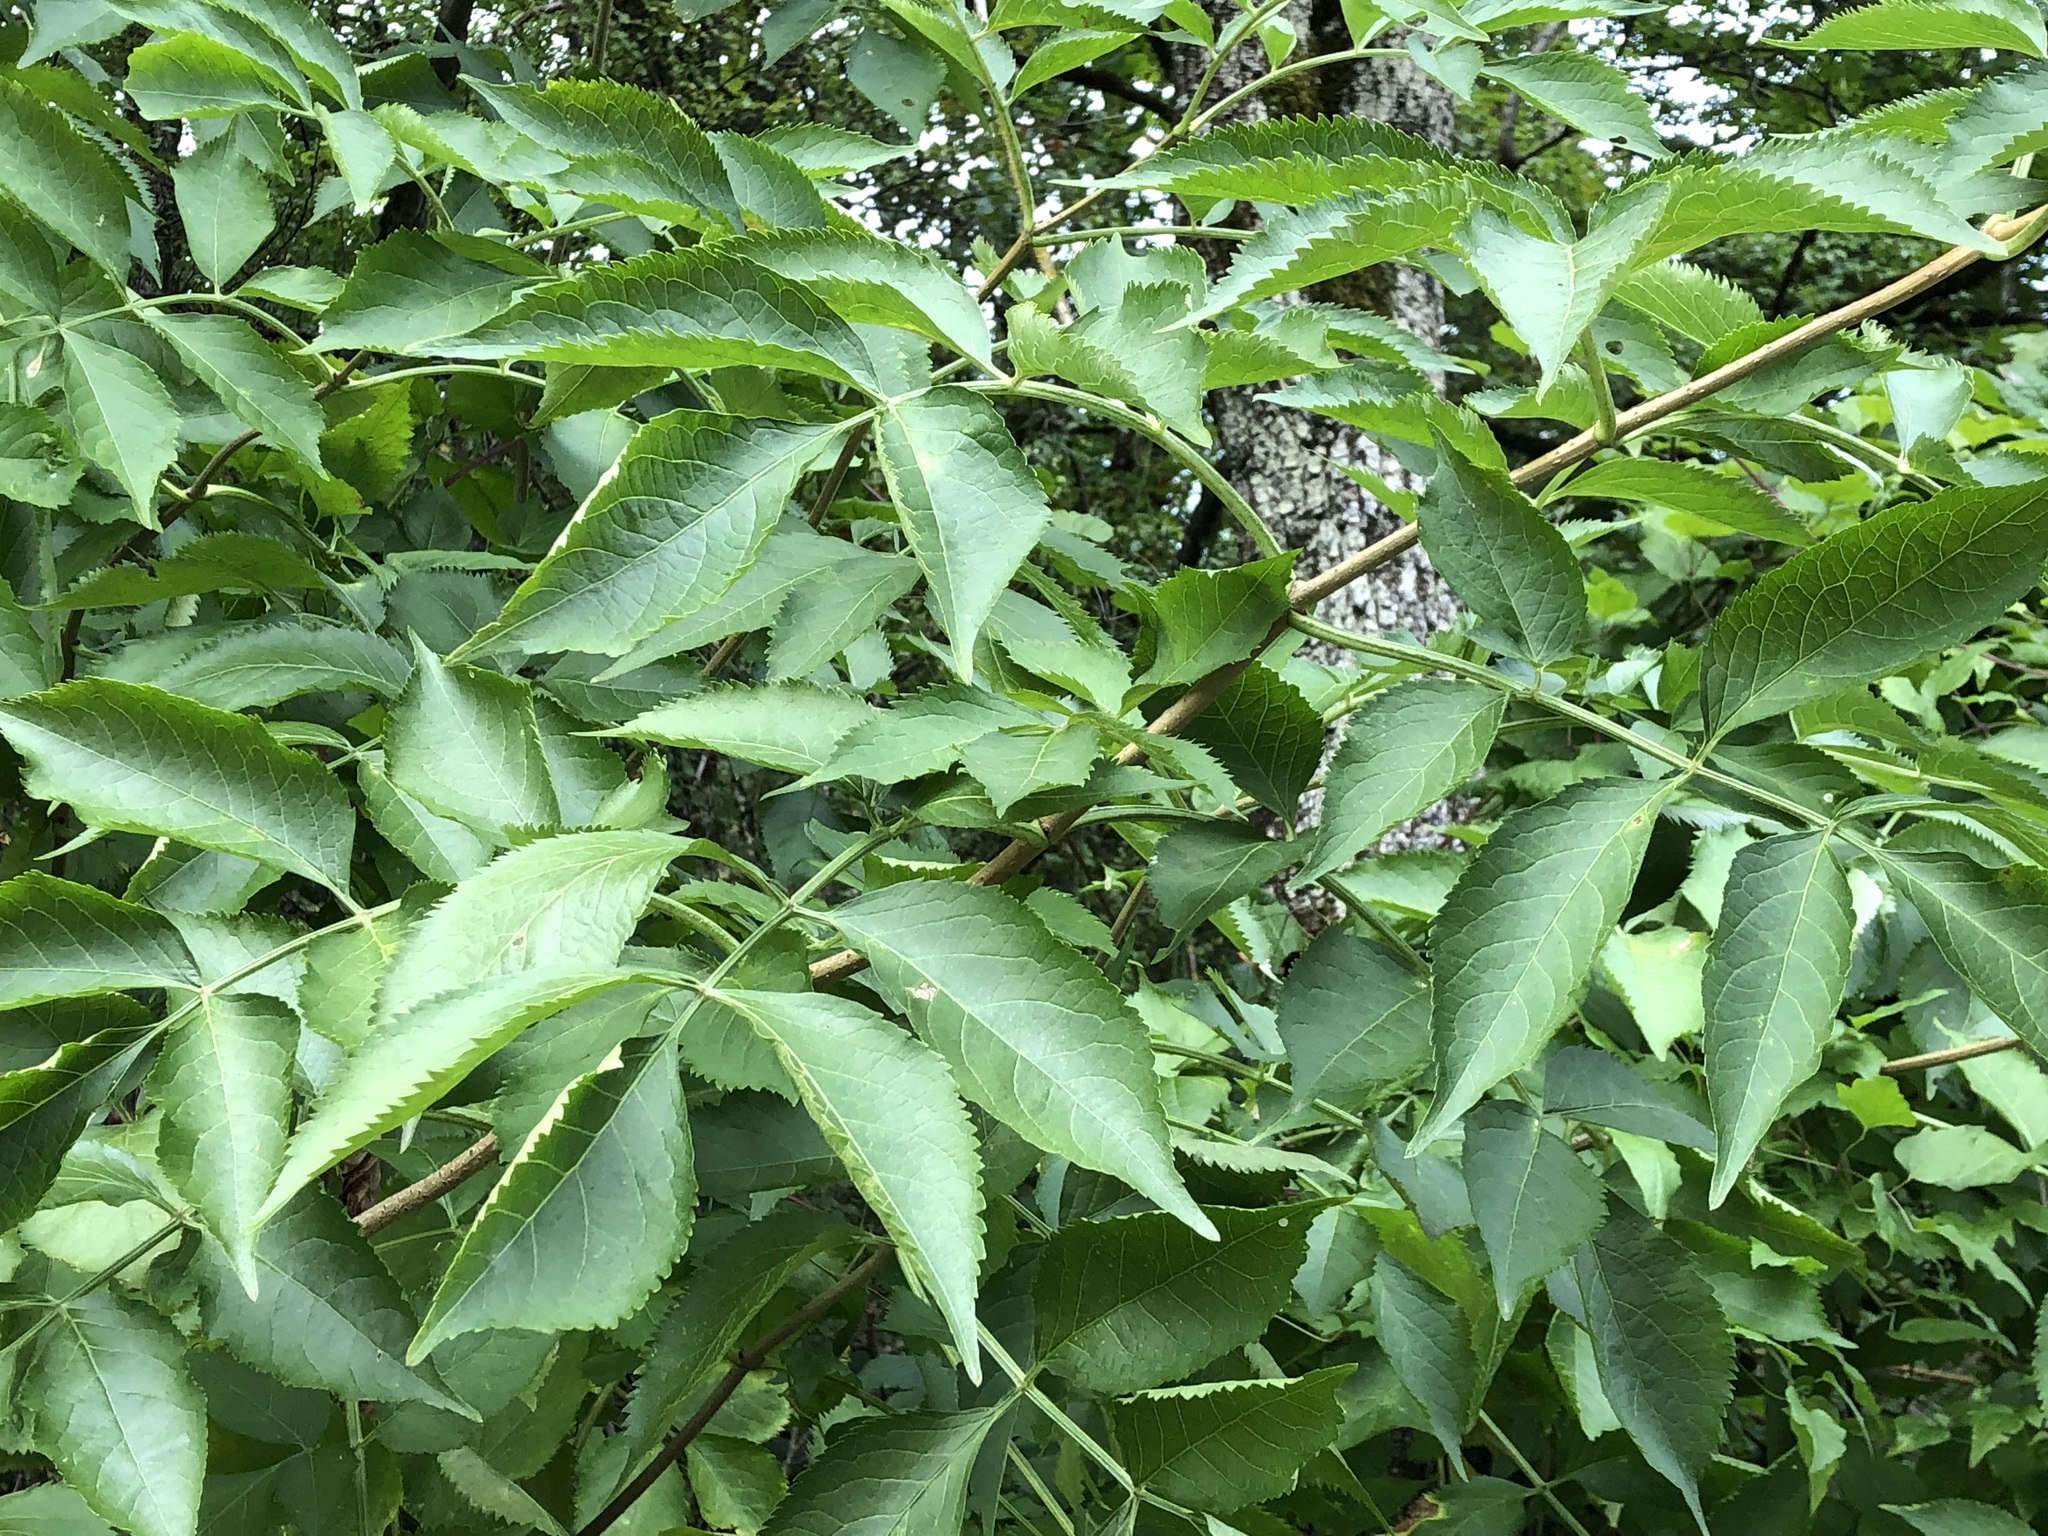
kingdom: Plantae
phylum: Tracheophyta
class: Magnoliopsida
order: Dipsacales
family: Viburnaceae
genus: Sambucus
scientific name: Sambucus nigra
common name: Elder
